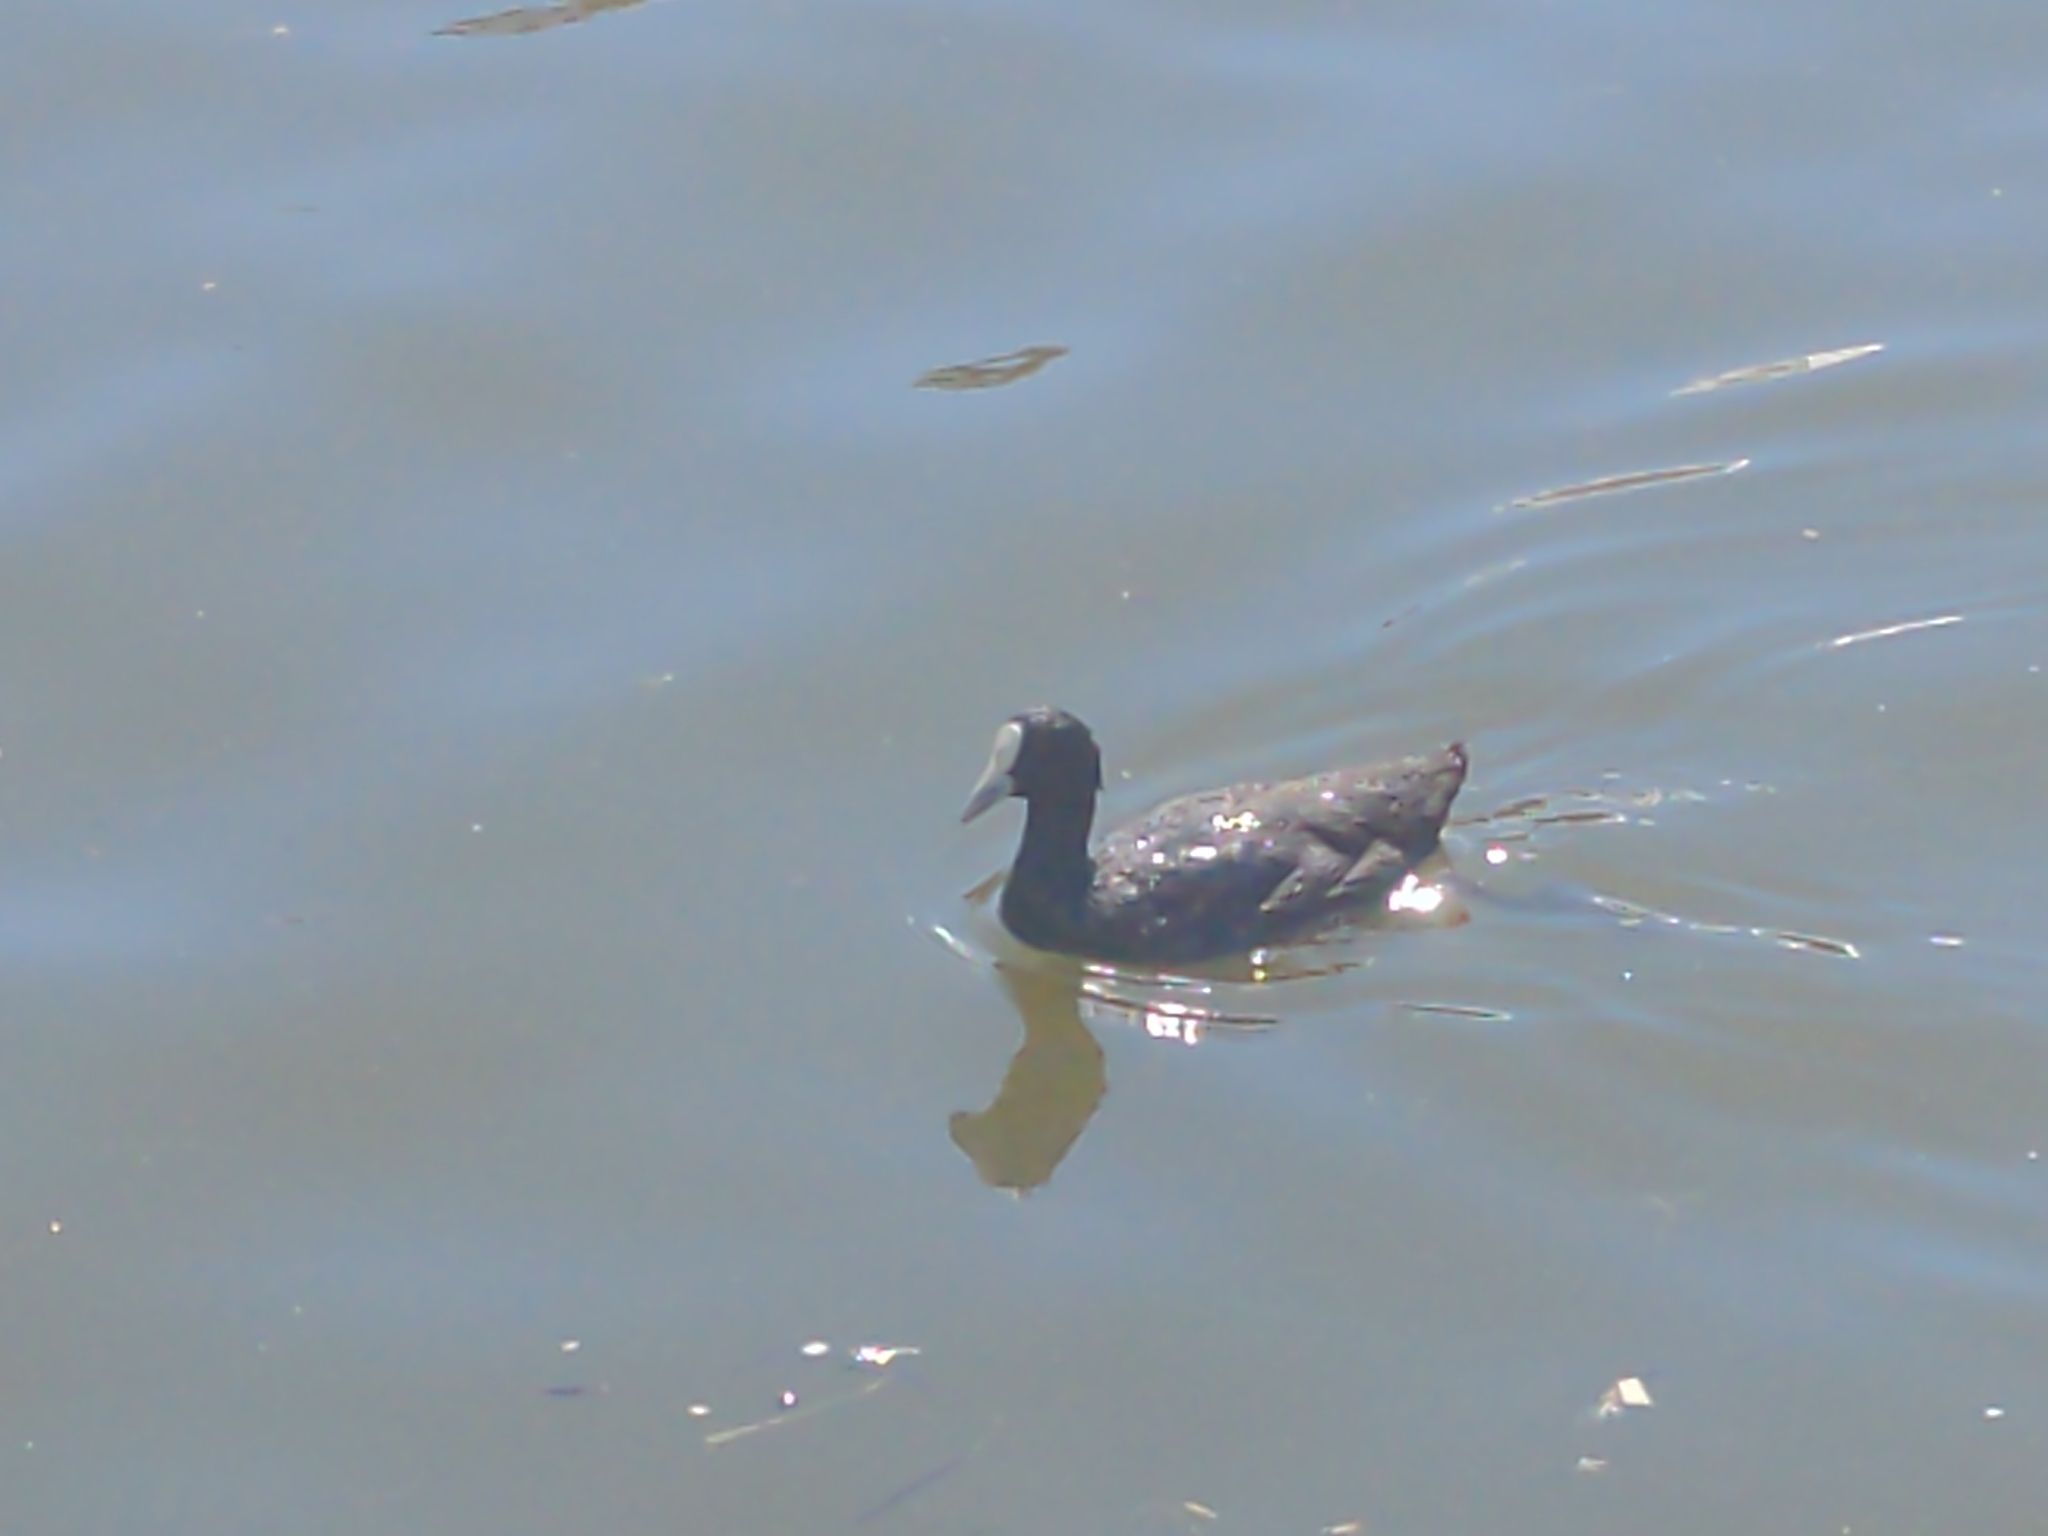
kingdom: Animalia
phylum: Chordata
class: Aves
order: Gruiformes
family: Rallidae
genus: Fulica
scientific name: Fulica atra
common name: Eurasian coot
